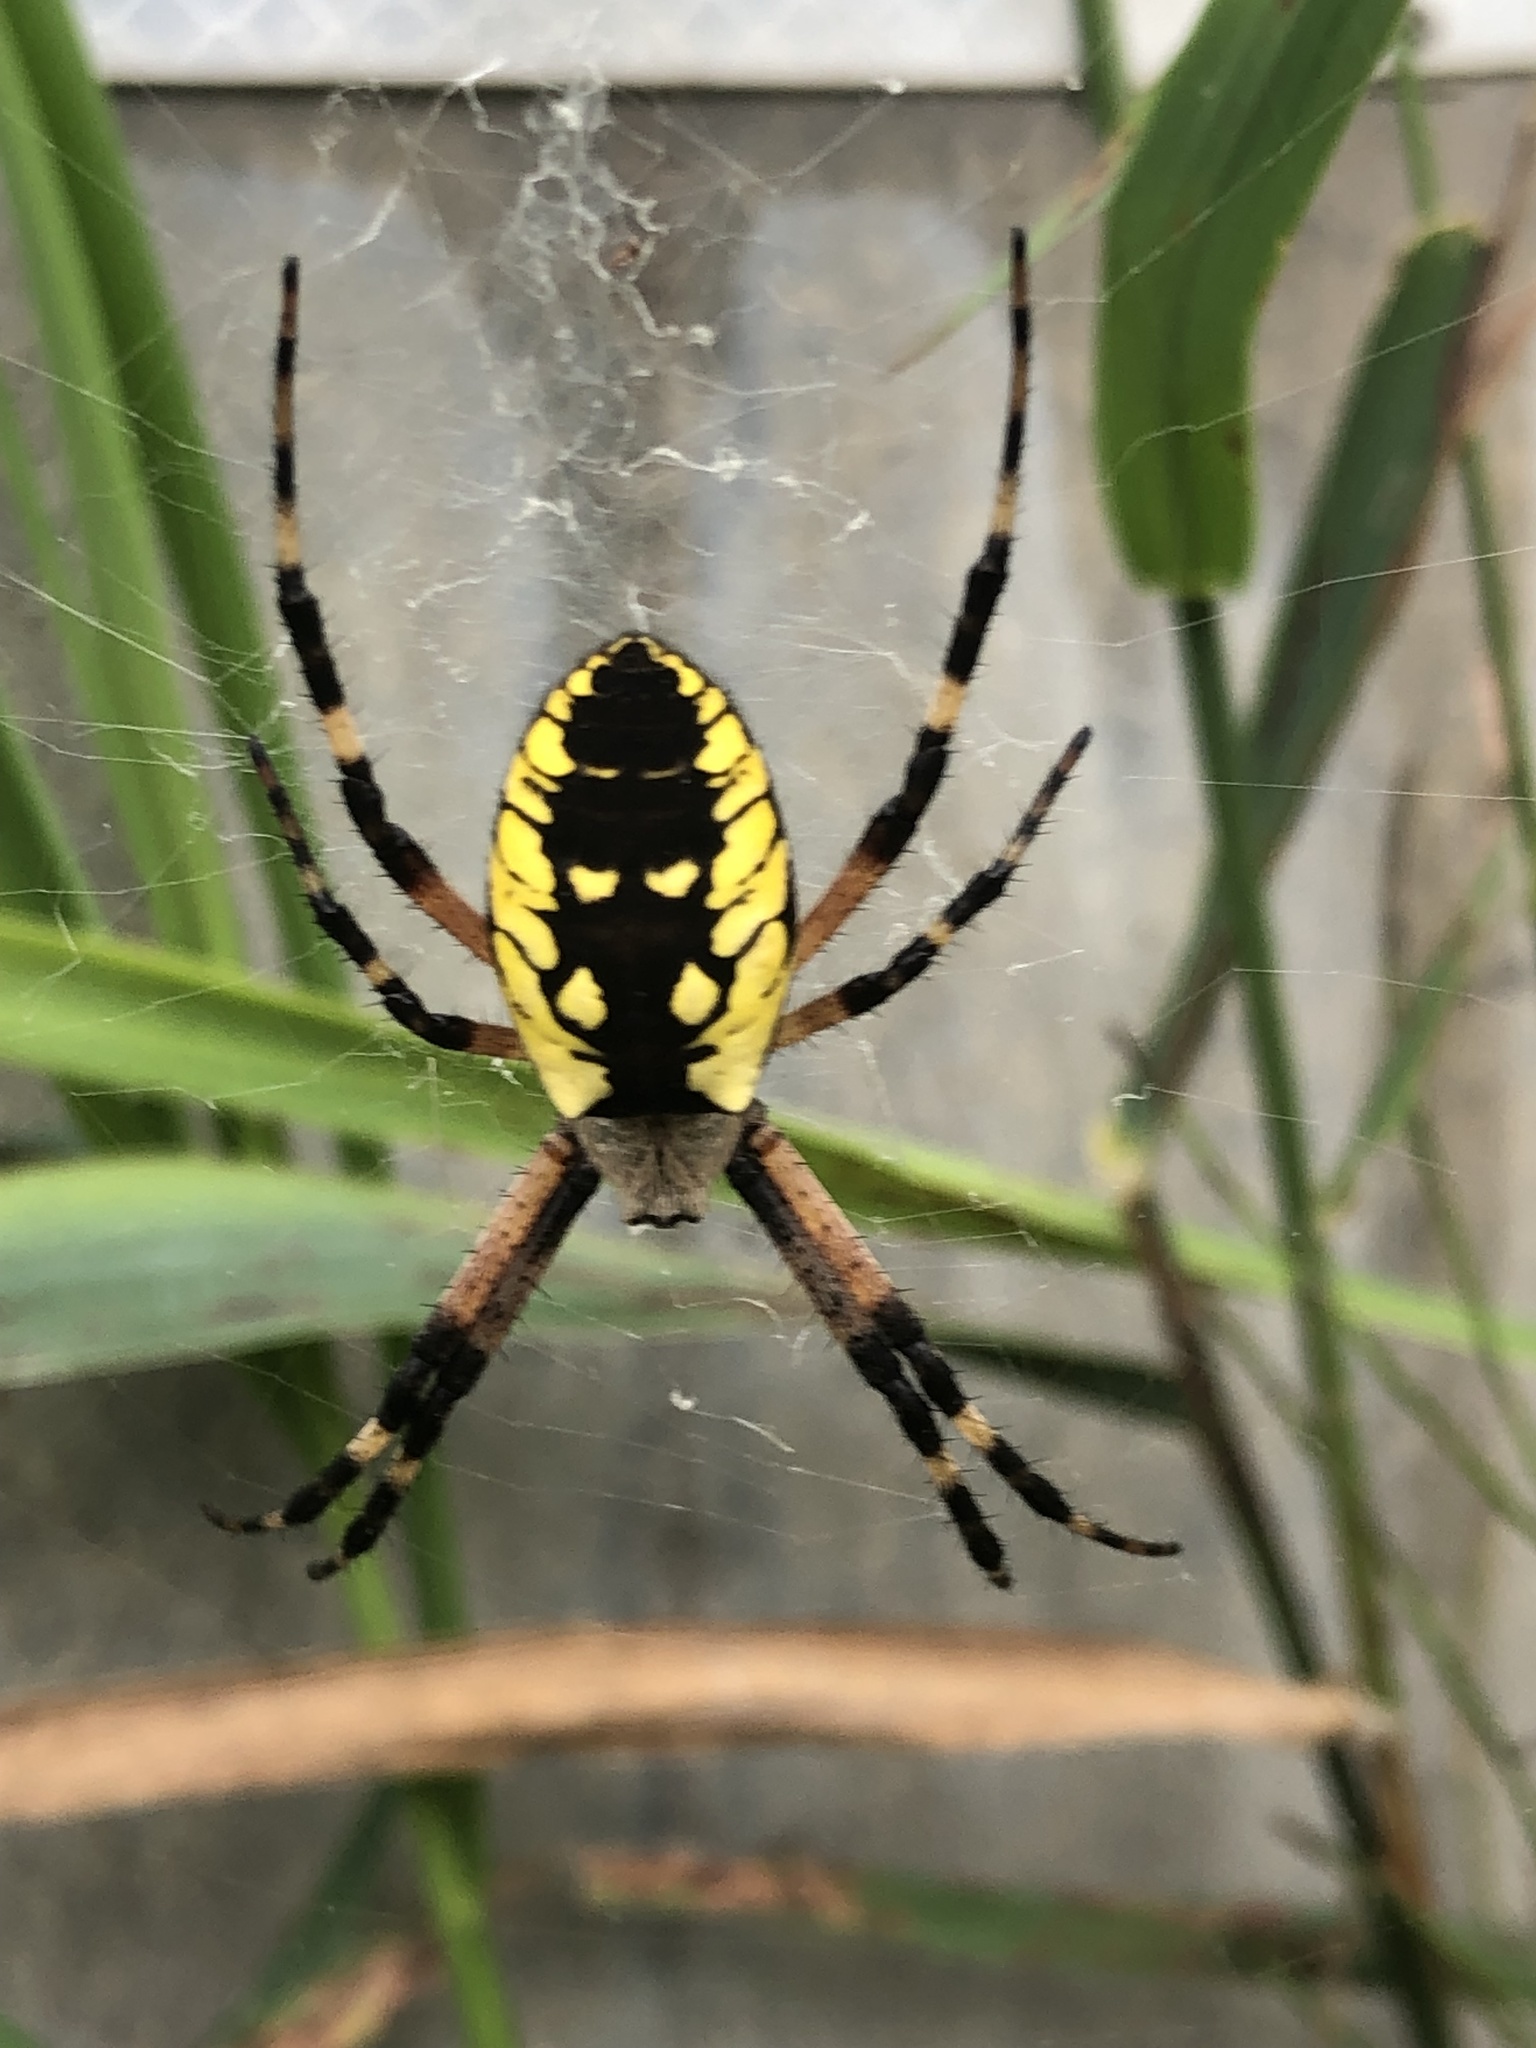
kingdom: Animalia
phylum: Arthropoda
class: Arachnida
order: Araneae
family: Araneidae
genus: Argiope
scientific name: Argiope aurantia
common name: Orb weavers
